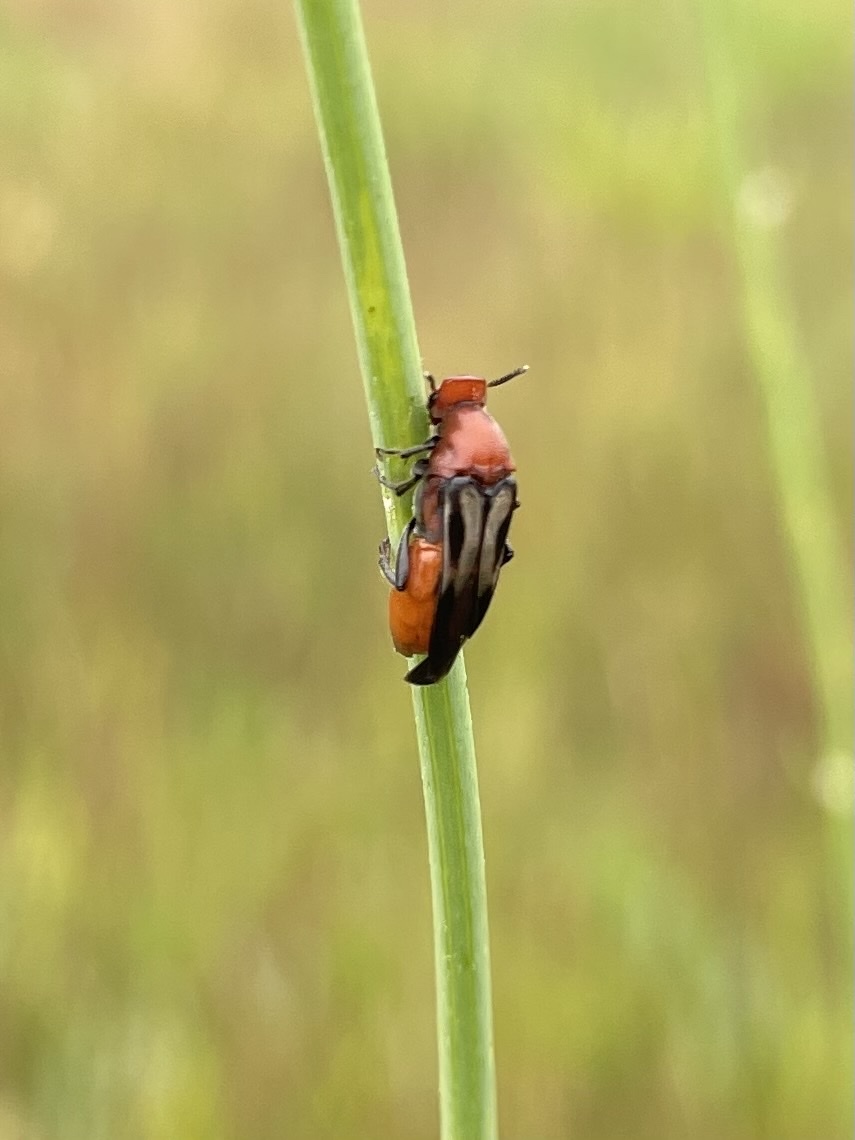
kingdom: Animalia
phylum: Arthropoda
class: Insecta
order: Coleoptera
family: Ripiphoridae
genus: Macrosiagon
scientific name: Macrosiagon sayi
